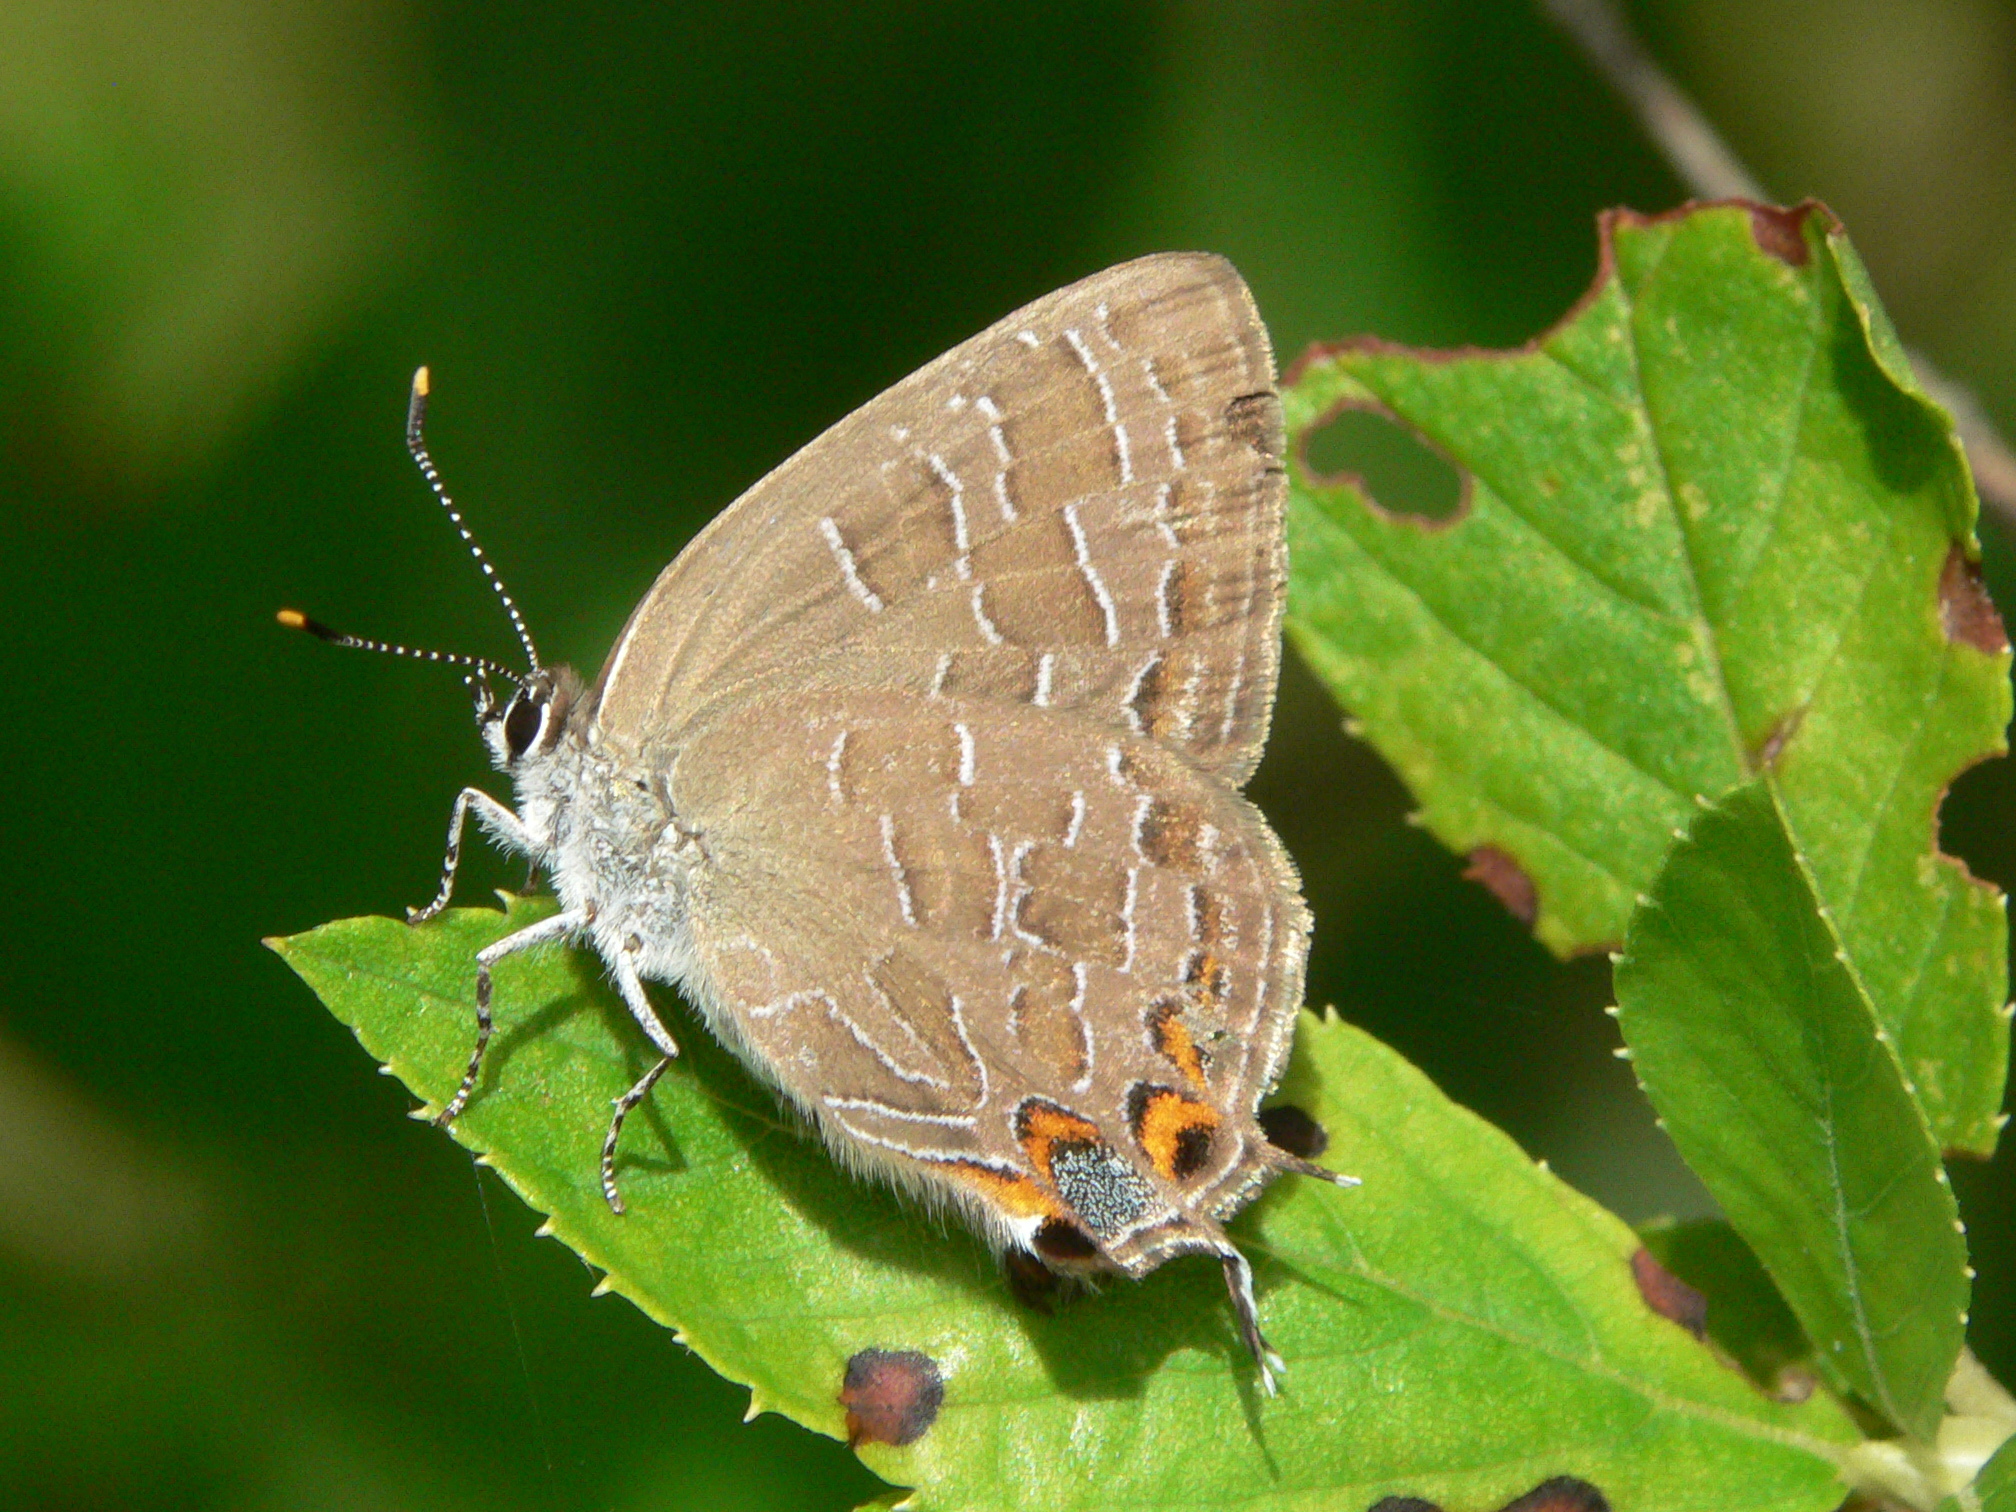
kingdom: Animalia
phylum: Arthropoda
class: Insecta
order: Lepidoptera
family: Lycaenidae
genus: Satyrium
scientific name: Satyrium liparops
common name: Striped hairstreak
